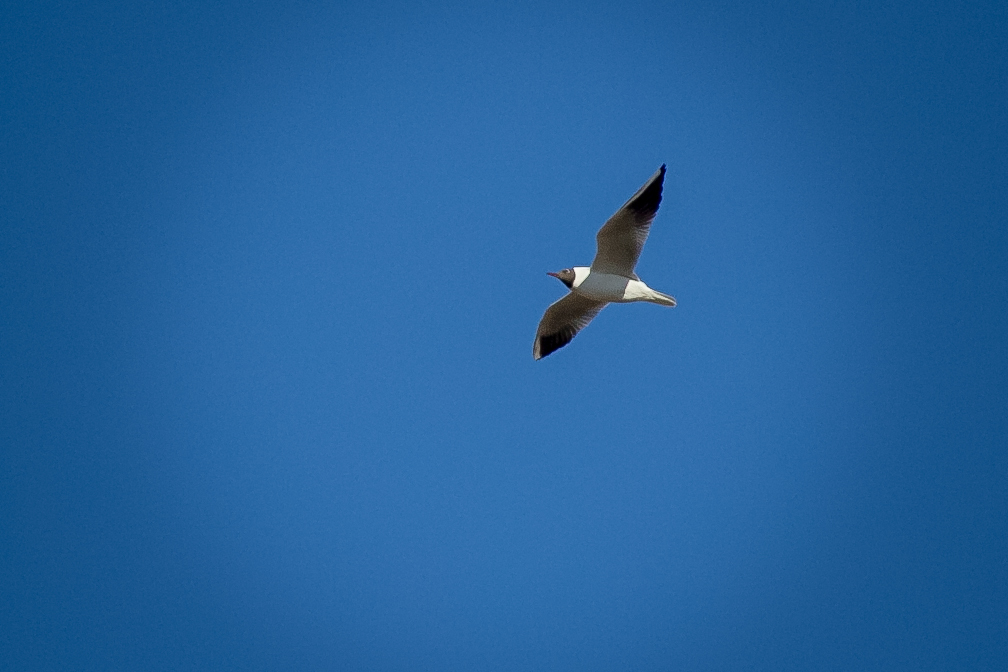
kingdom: Animalia
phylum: Chordata
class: Aves
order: Charadriiformes
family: Laridae
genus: Chroicocephalus
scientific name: Chroicocephalus ridibundus
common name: Black-headed gull
